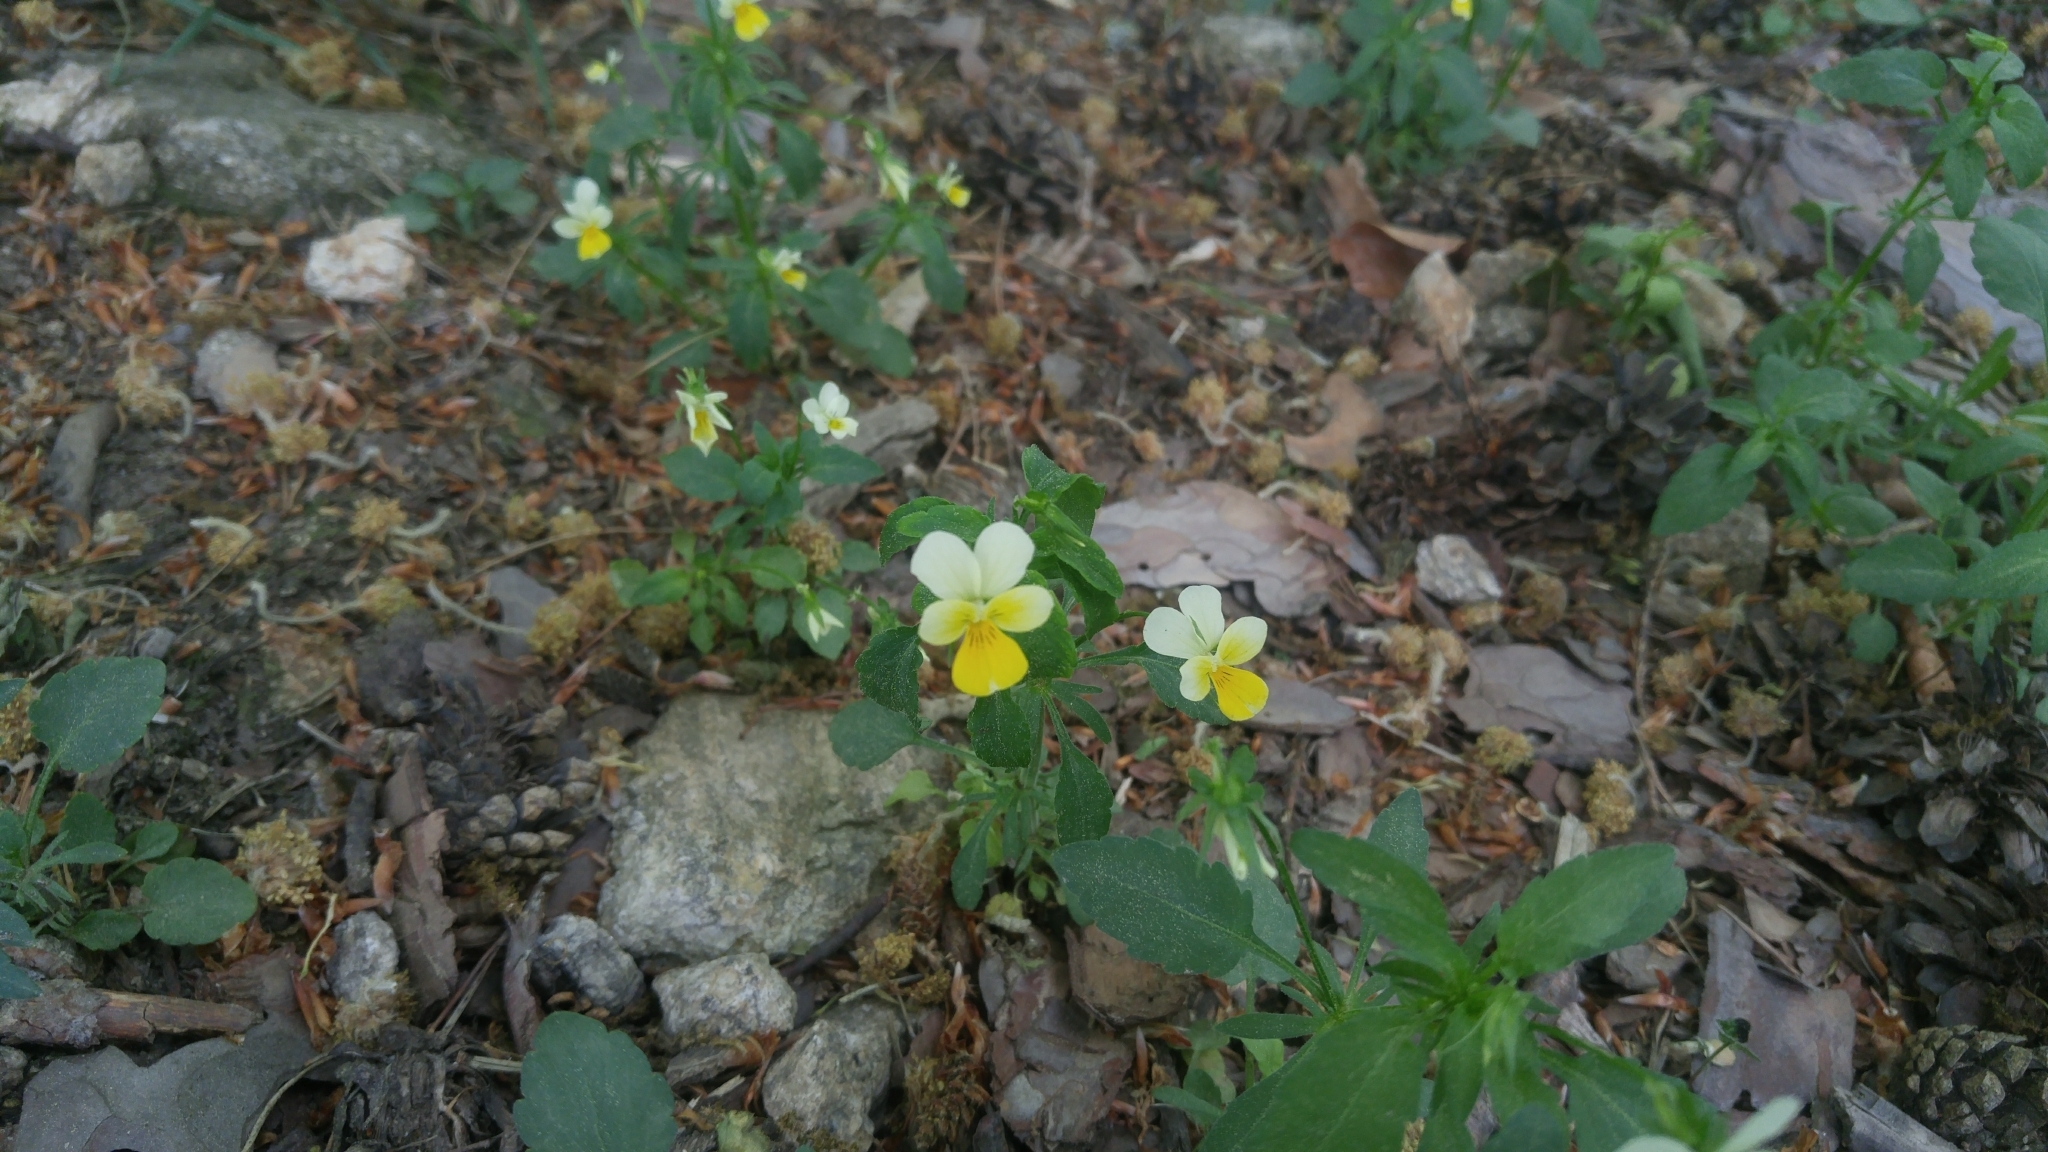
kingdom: Plantae
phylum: Tracheophyta
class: Magnoliopsida
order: Malpighiales
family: Violaceae
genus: Viola
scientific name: Viola arvensis
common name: Field pansy
